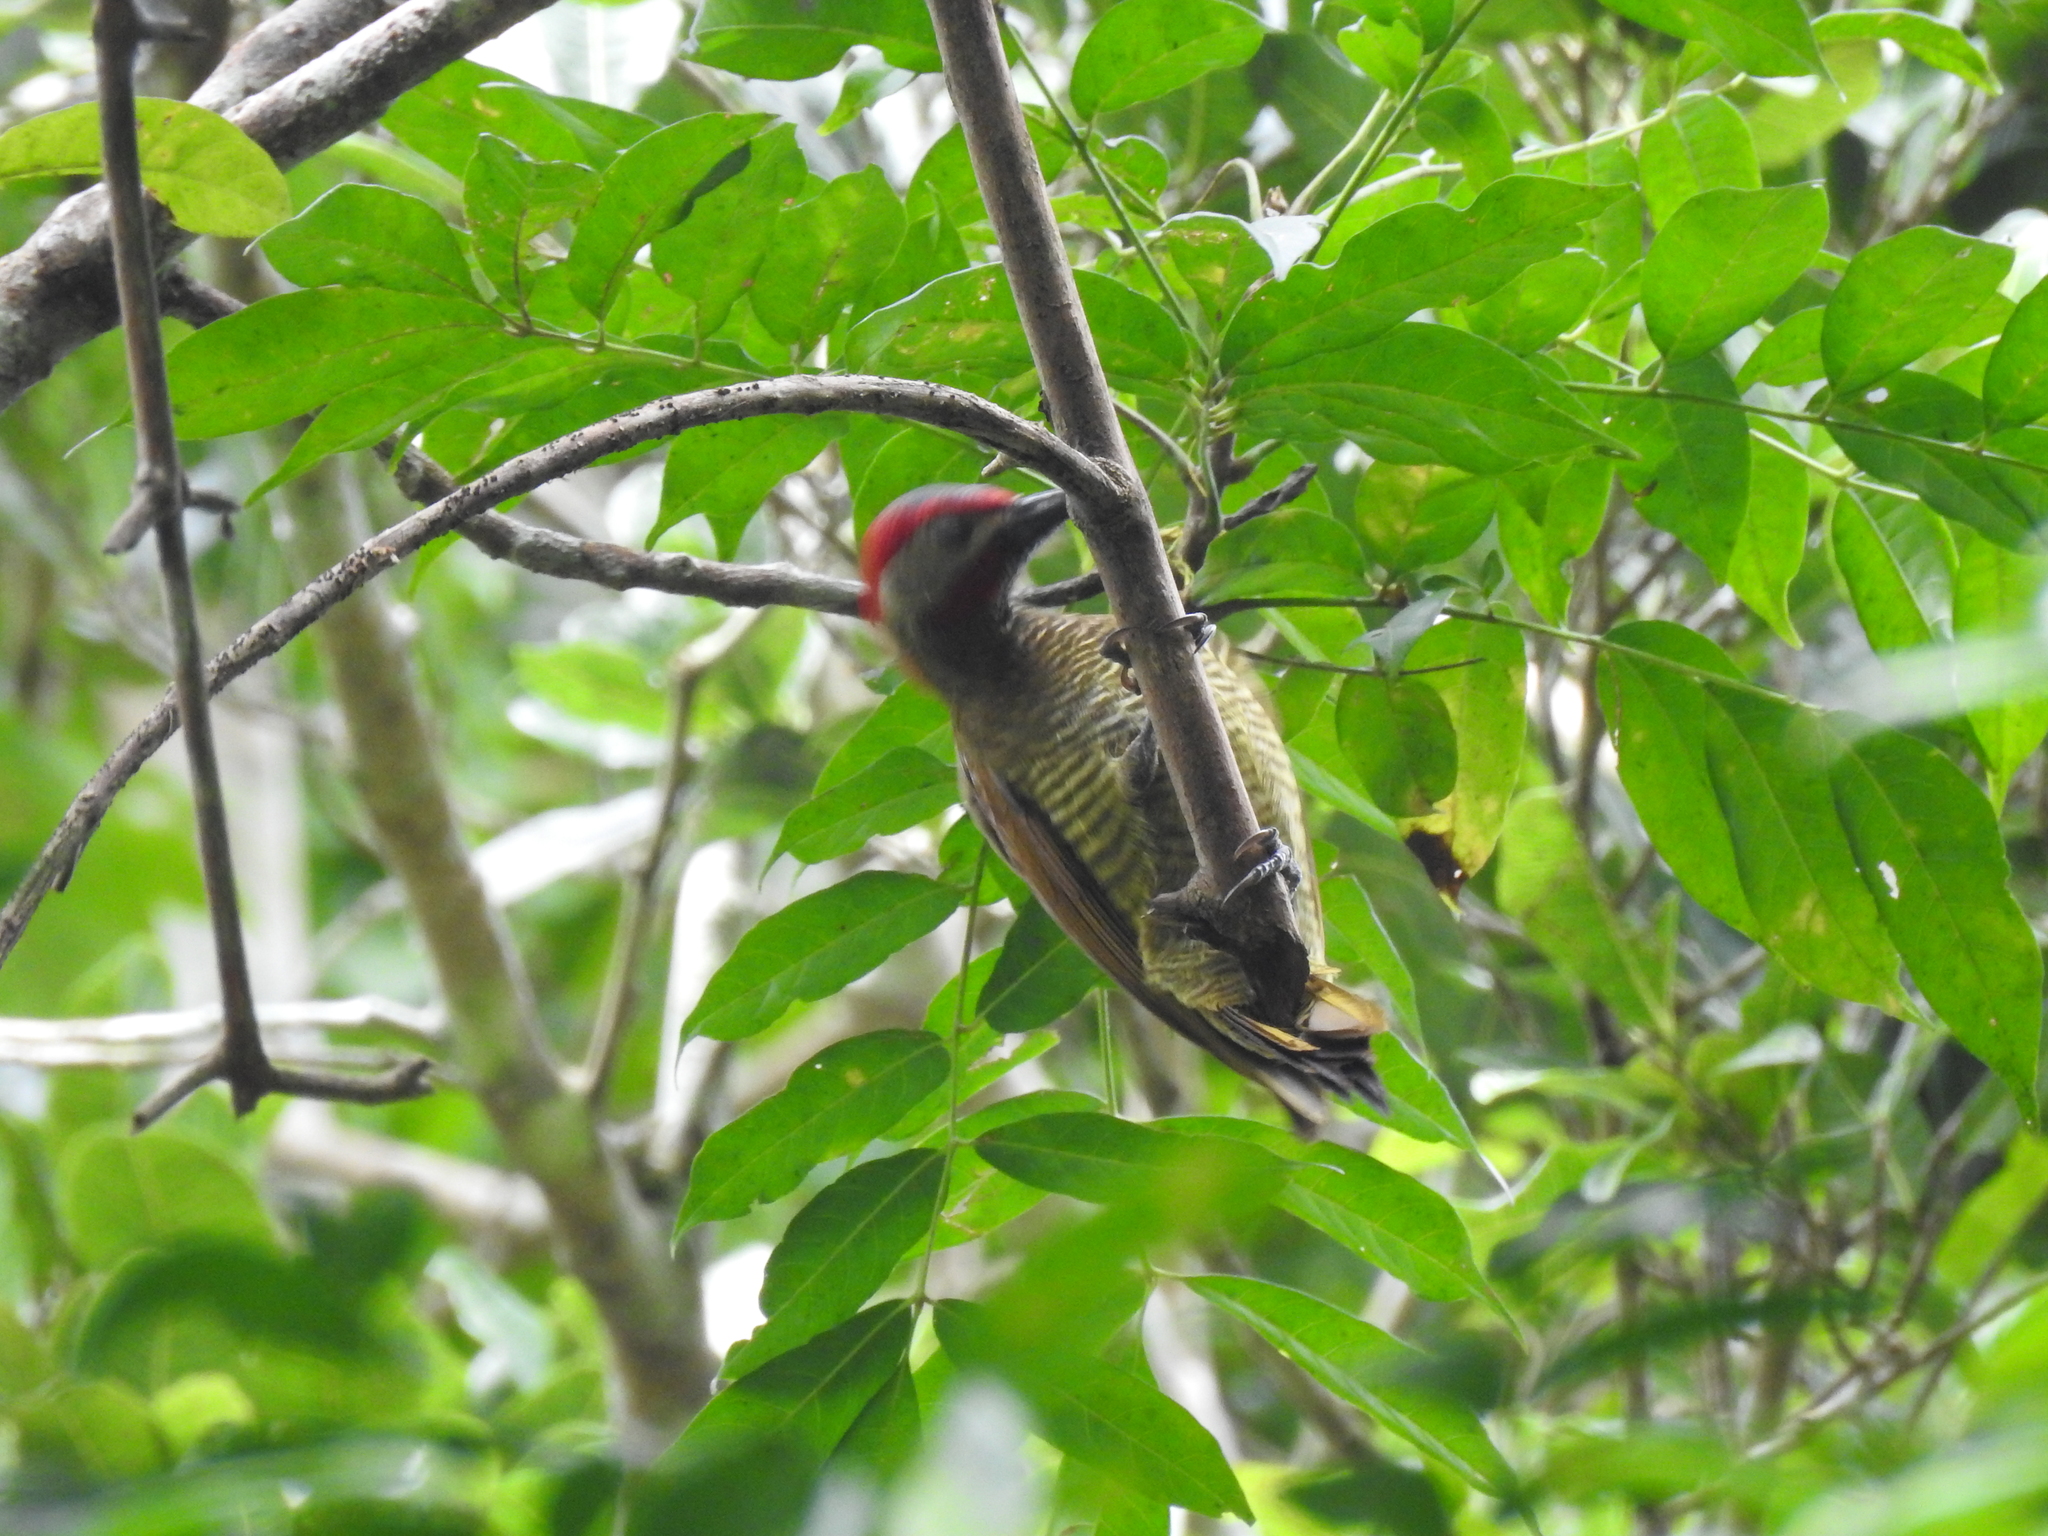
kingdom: Animalia
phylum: Chordata
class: Aves
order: Piciformes
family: Picidae
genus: Colaptes
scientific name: Colaptes rubiginosus
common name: Golden-olive woodpecker
